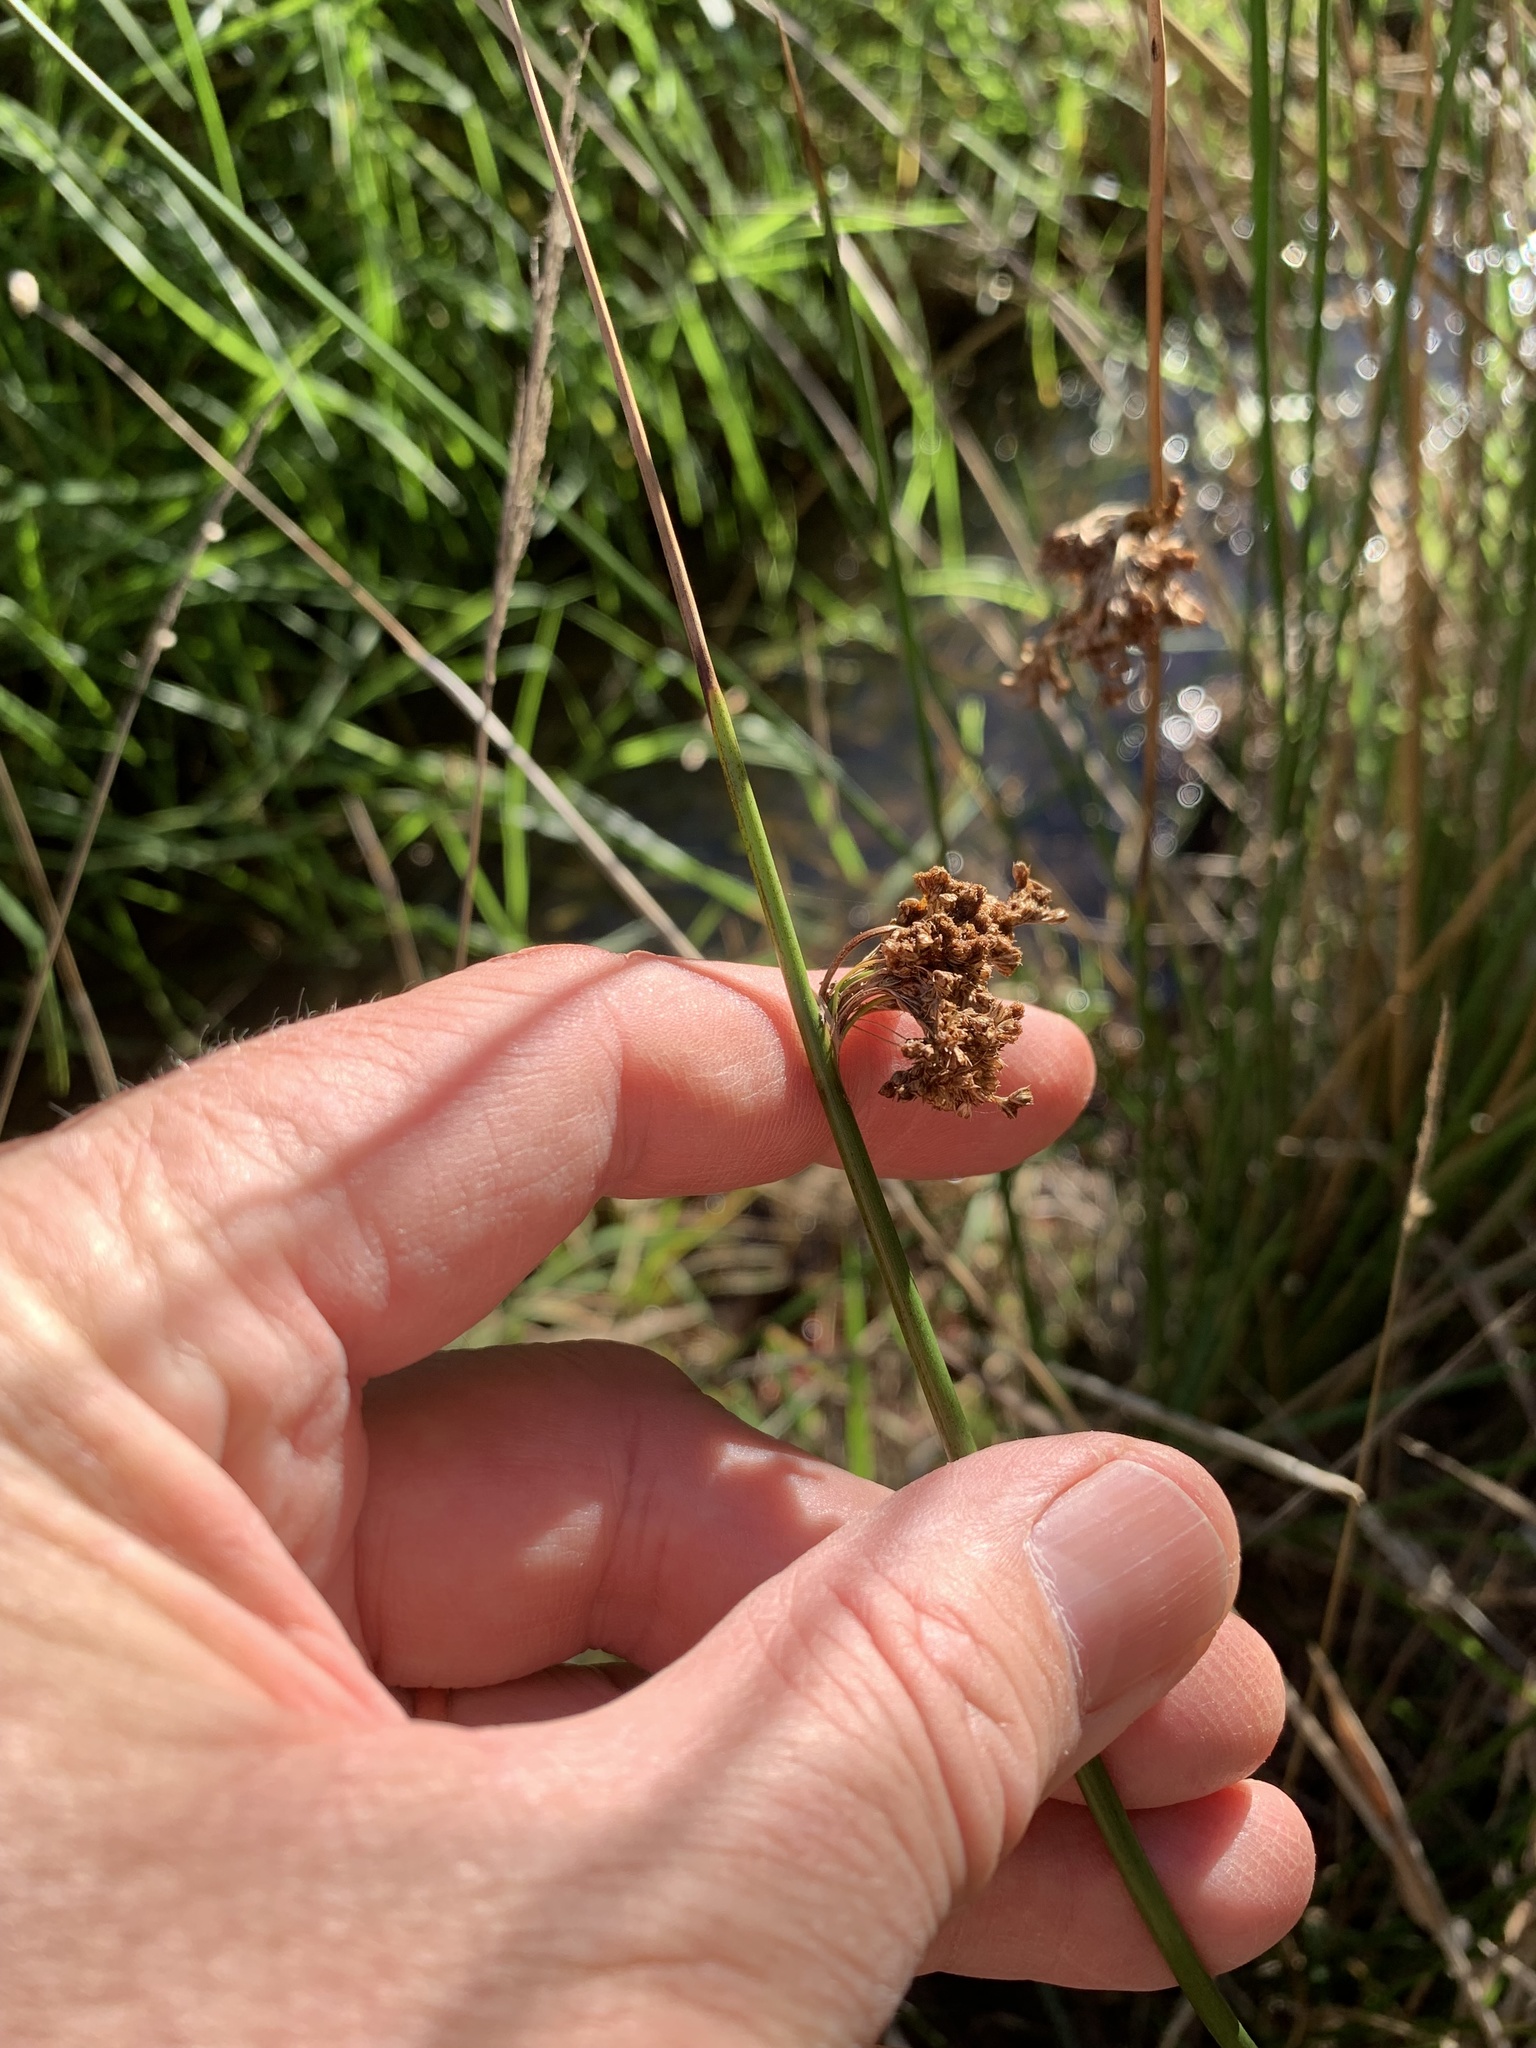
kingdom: Plantae
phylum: Tracheophyta
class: Liliopsida
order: Poales
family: Juncaceae
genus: Juncus
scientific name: Juncus effusus
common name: Soft rush
